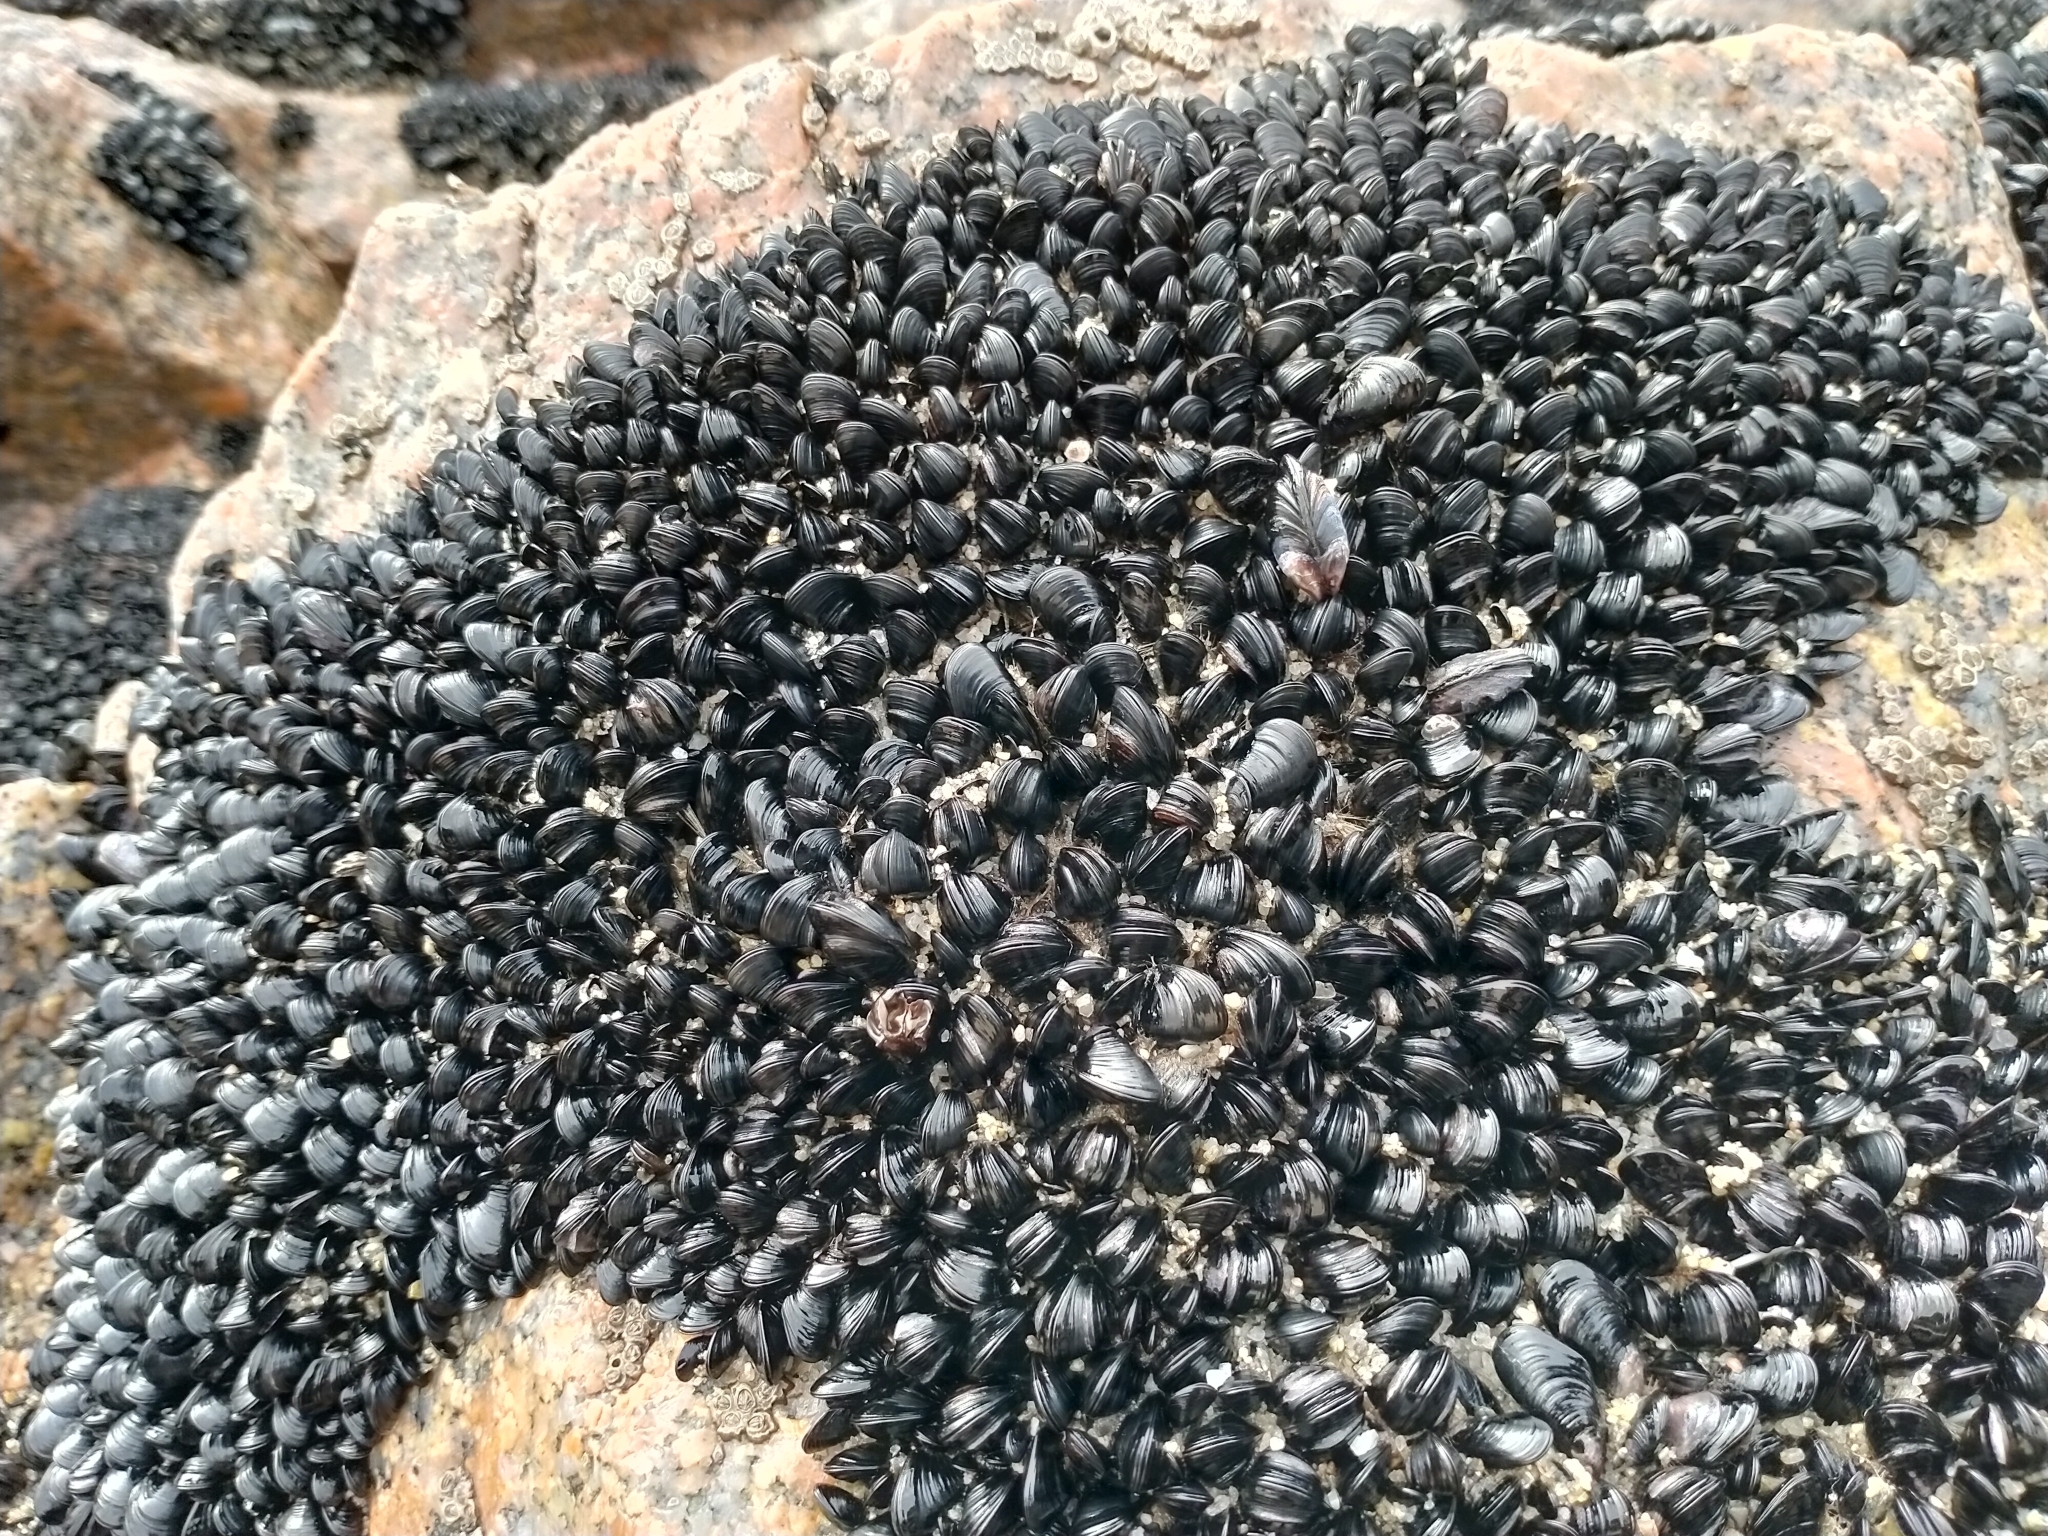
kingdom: Animalia
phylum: Mollusca
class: Bivalvia
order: Mytilida
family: Mytilidae
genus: Xenostrobus
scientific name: Xenostrobus neozelanicus
